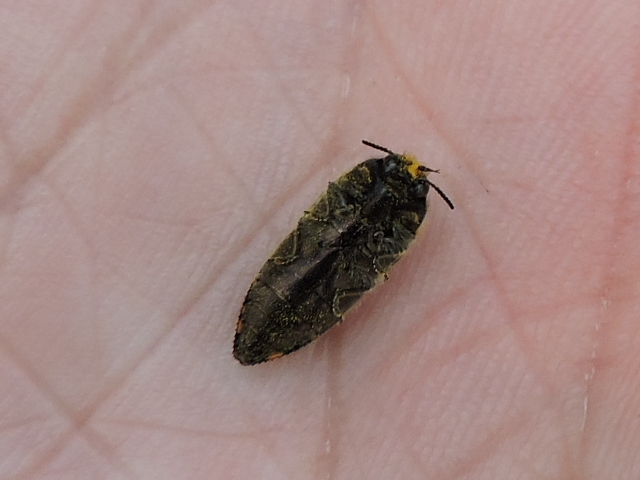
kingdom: Animalia
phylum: Arthropoda
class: Insecta
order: Coleoptera
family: Buprestidae
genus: Acmaeodera
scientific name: Acmaeodera mixta
